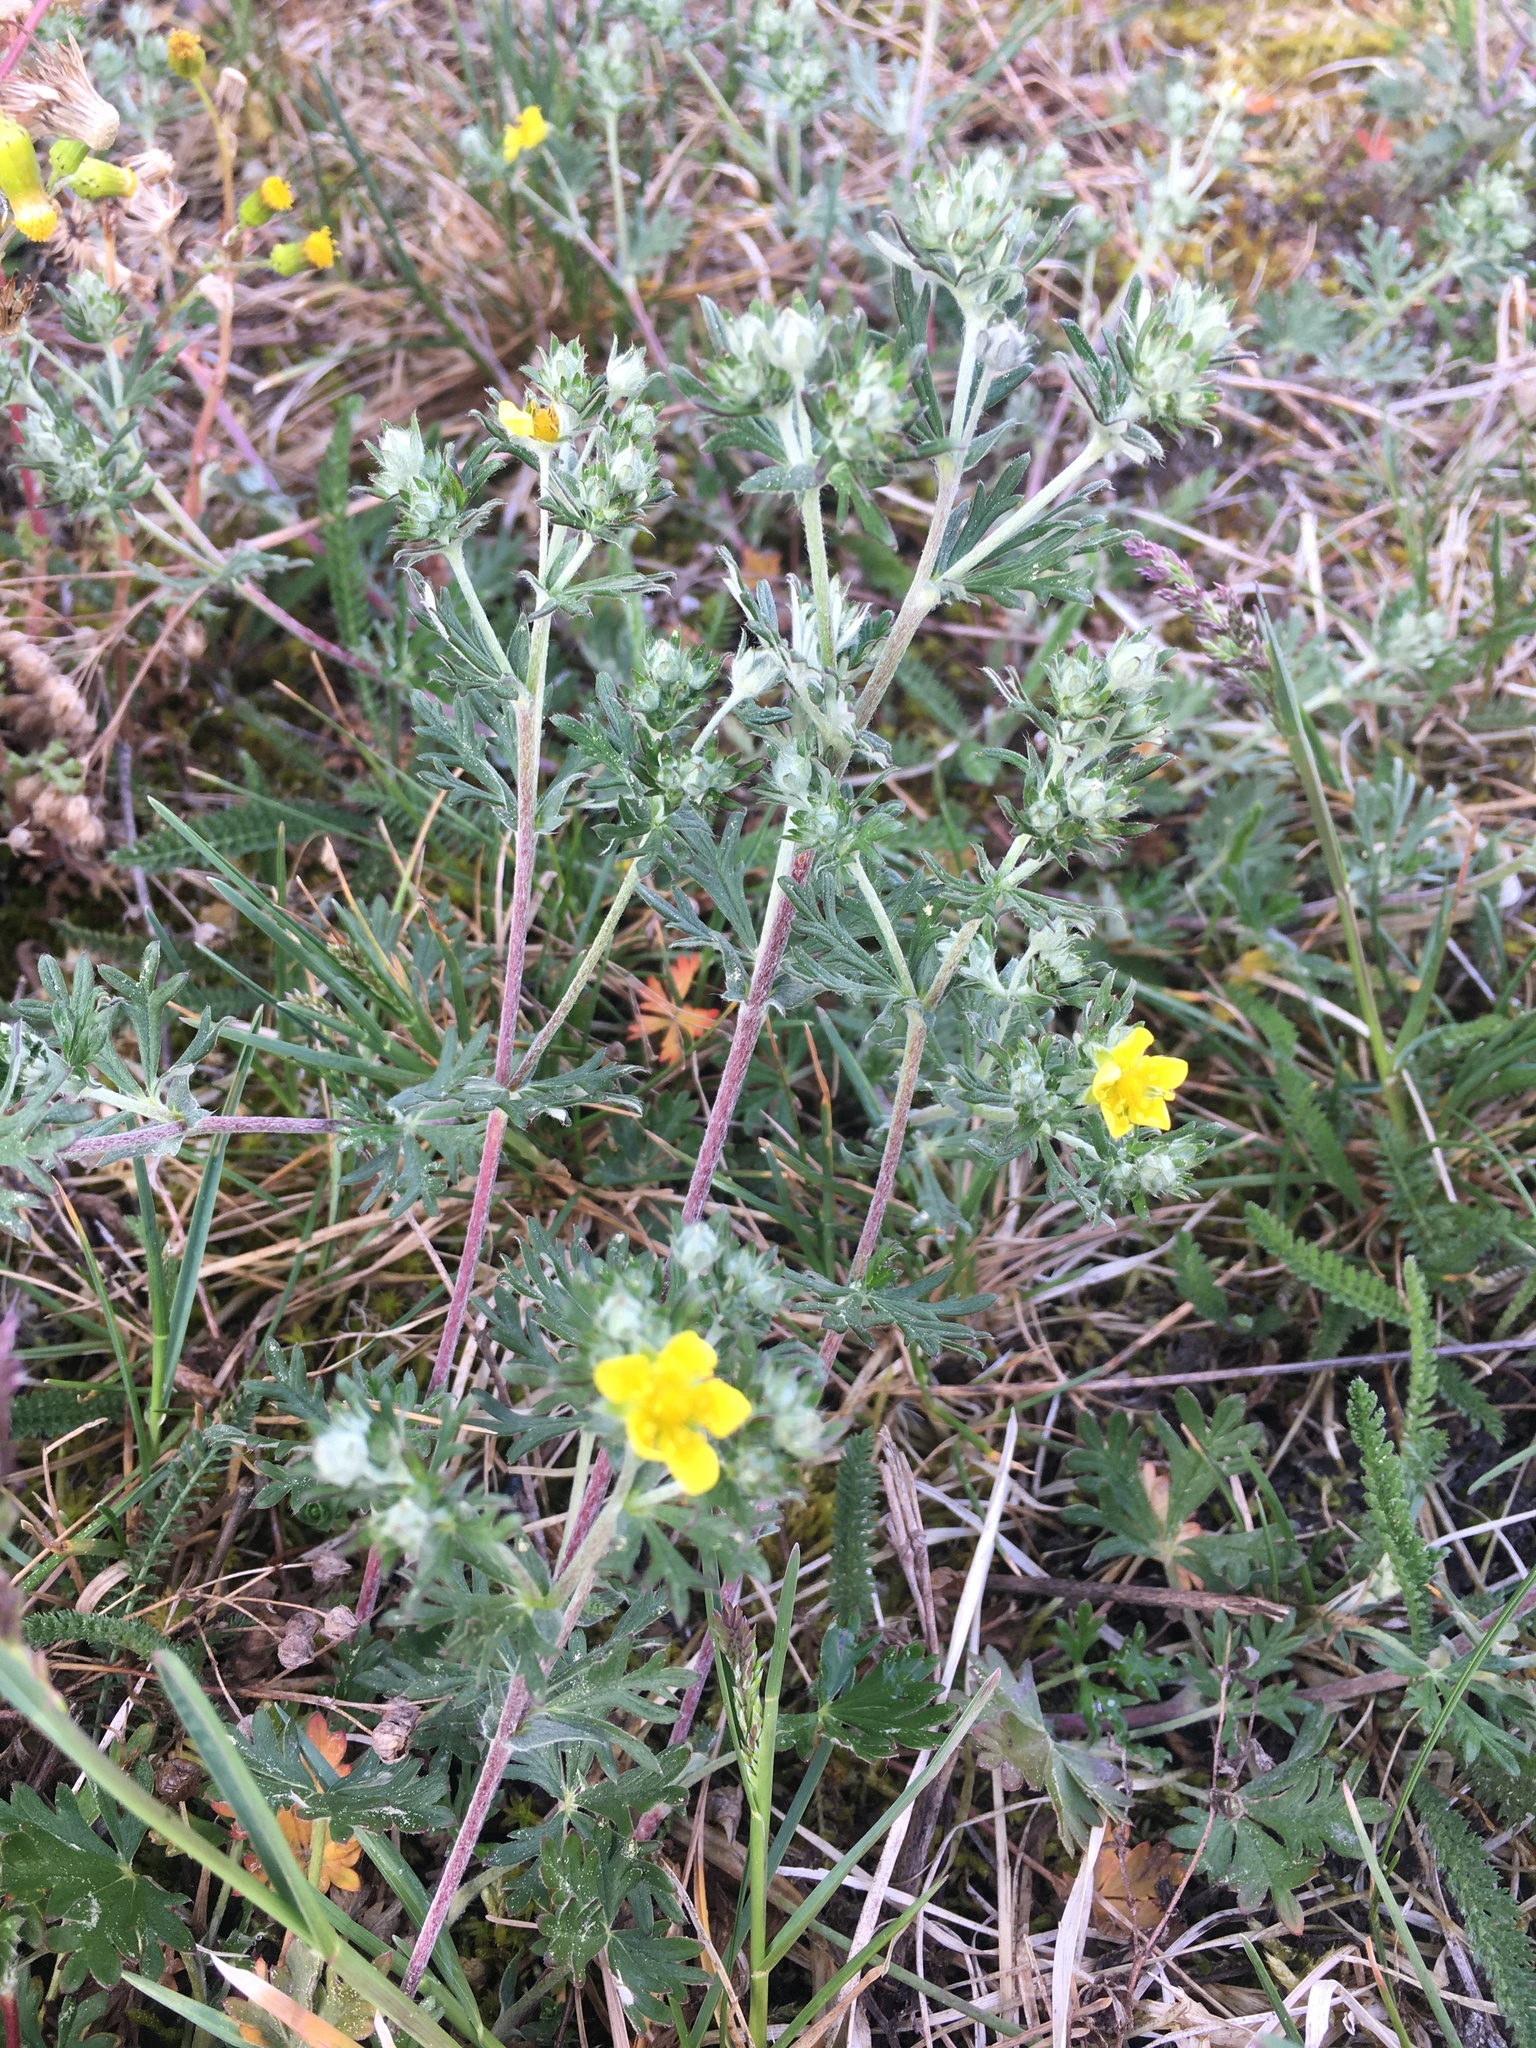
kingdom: Plantae
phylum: Tracheophyta
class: Magnoliopsida
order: Rosales
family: Rosaceae
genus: Potentilla
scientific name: Potentilla argentea
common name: Hoary cinquefoil
